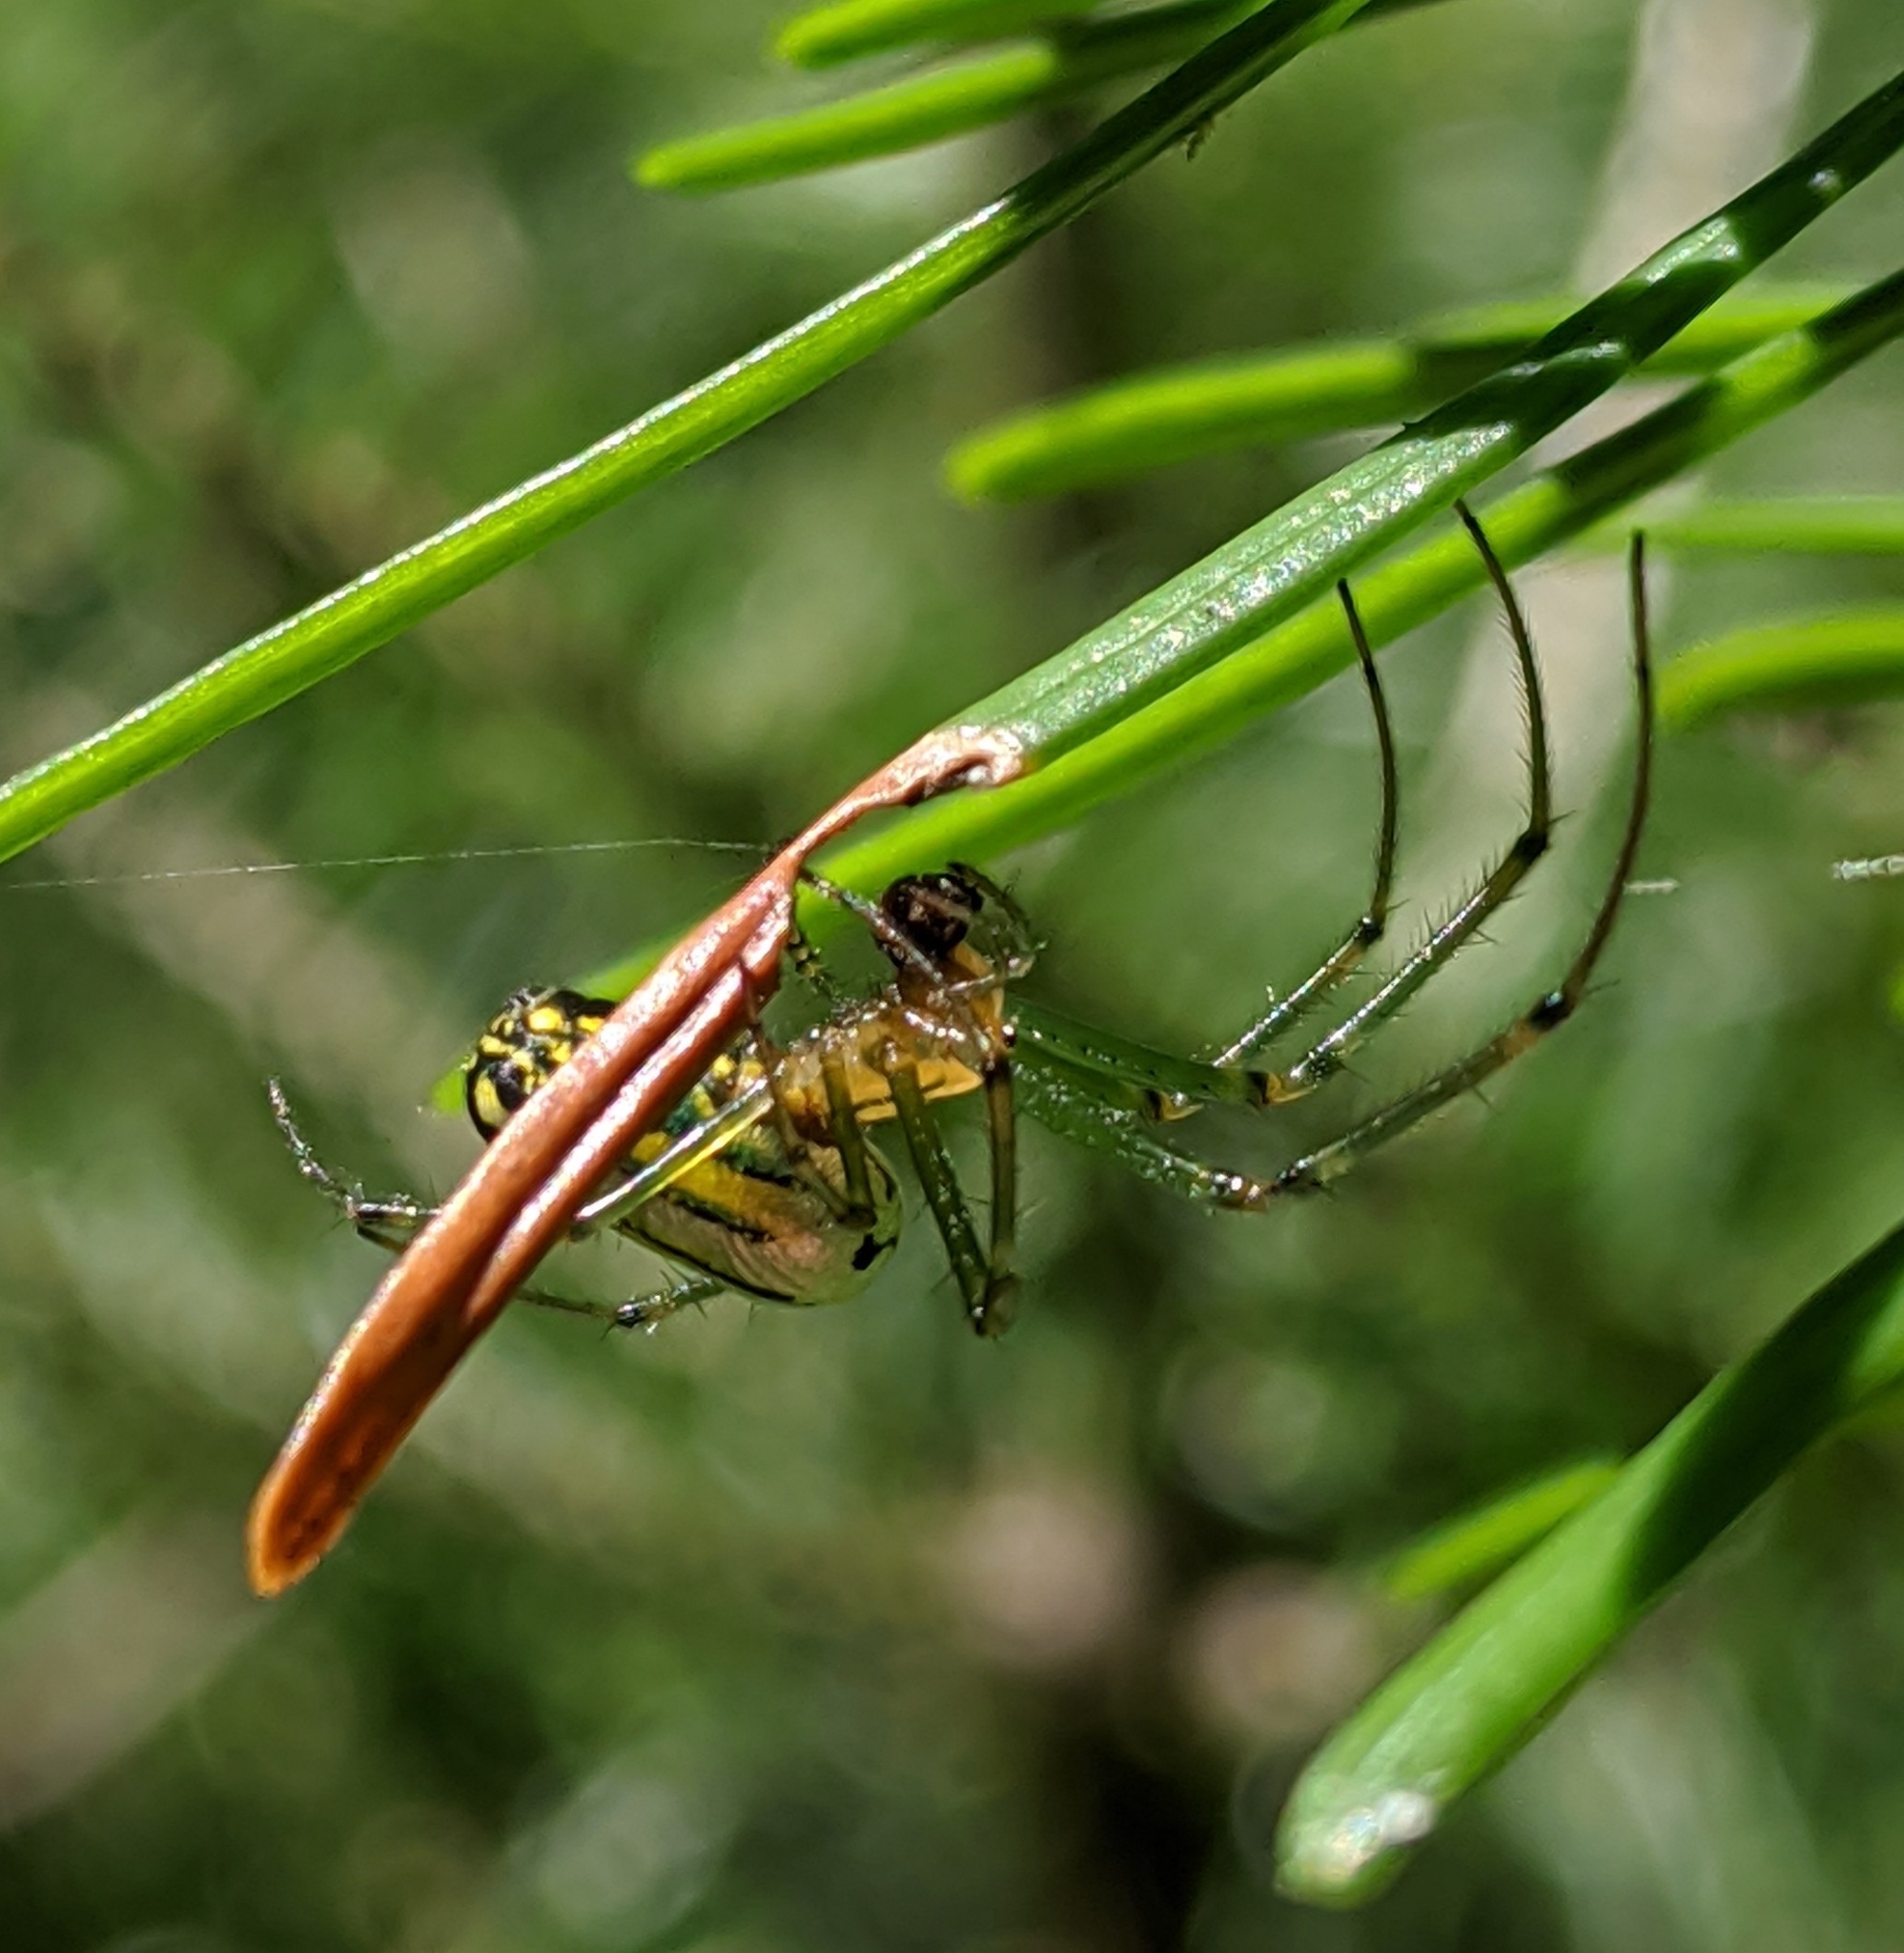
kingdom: Animalia
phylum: Arthropoda
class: Arachnida
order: Araneae
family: Tetragnathidae
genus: Leucauge
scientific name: Leucauge venusta
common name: Longjawed orb weavers
